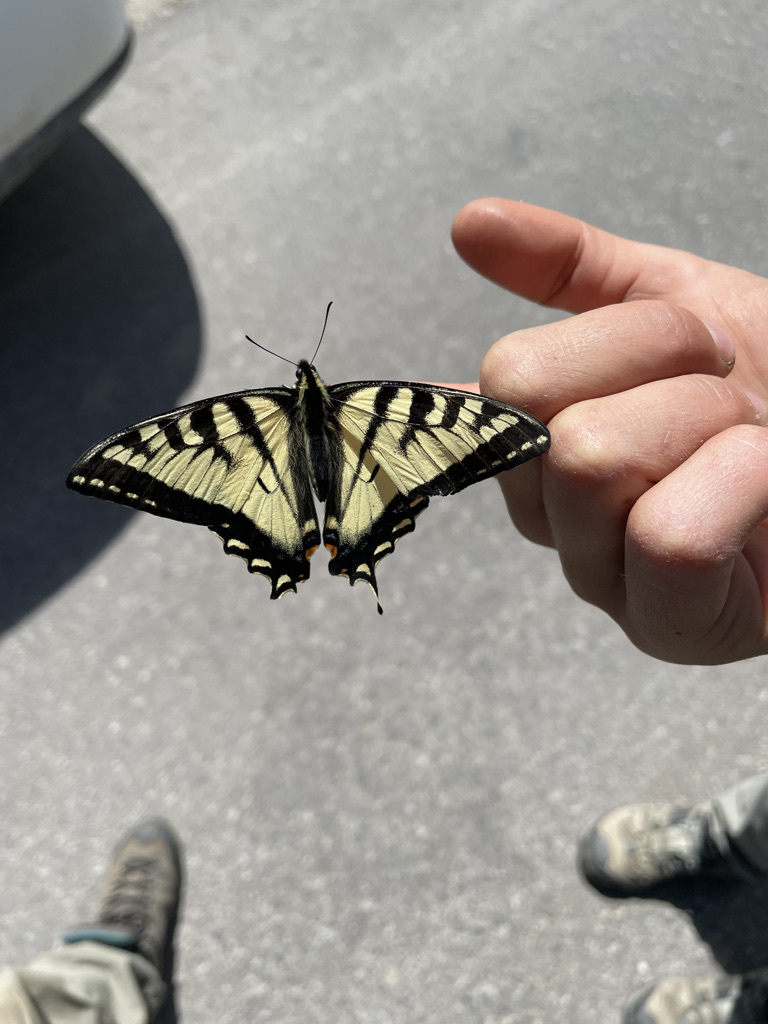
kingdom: Animalia
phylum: Arthropoda
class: Insecta
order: Lepidoptera
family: Papilionidae
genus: Papilio
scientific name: Papilio canadensis
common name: Canadian tiger swallowtail
